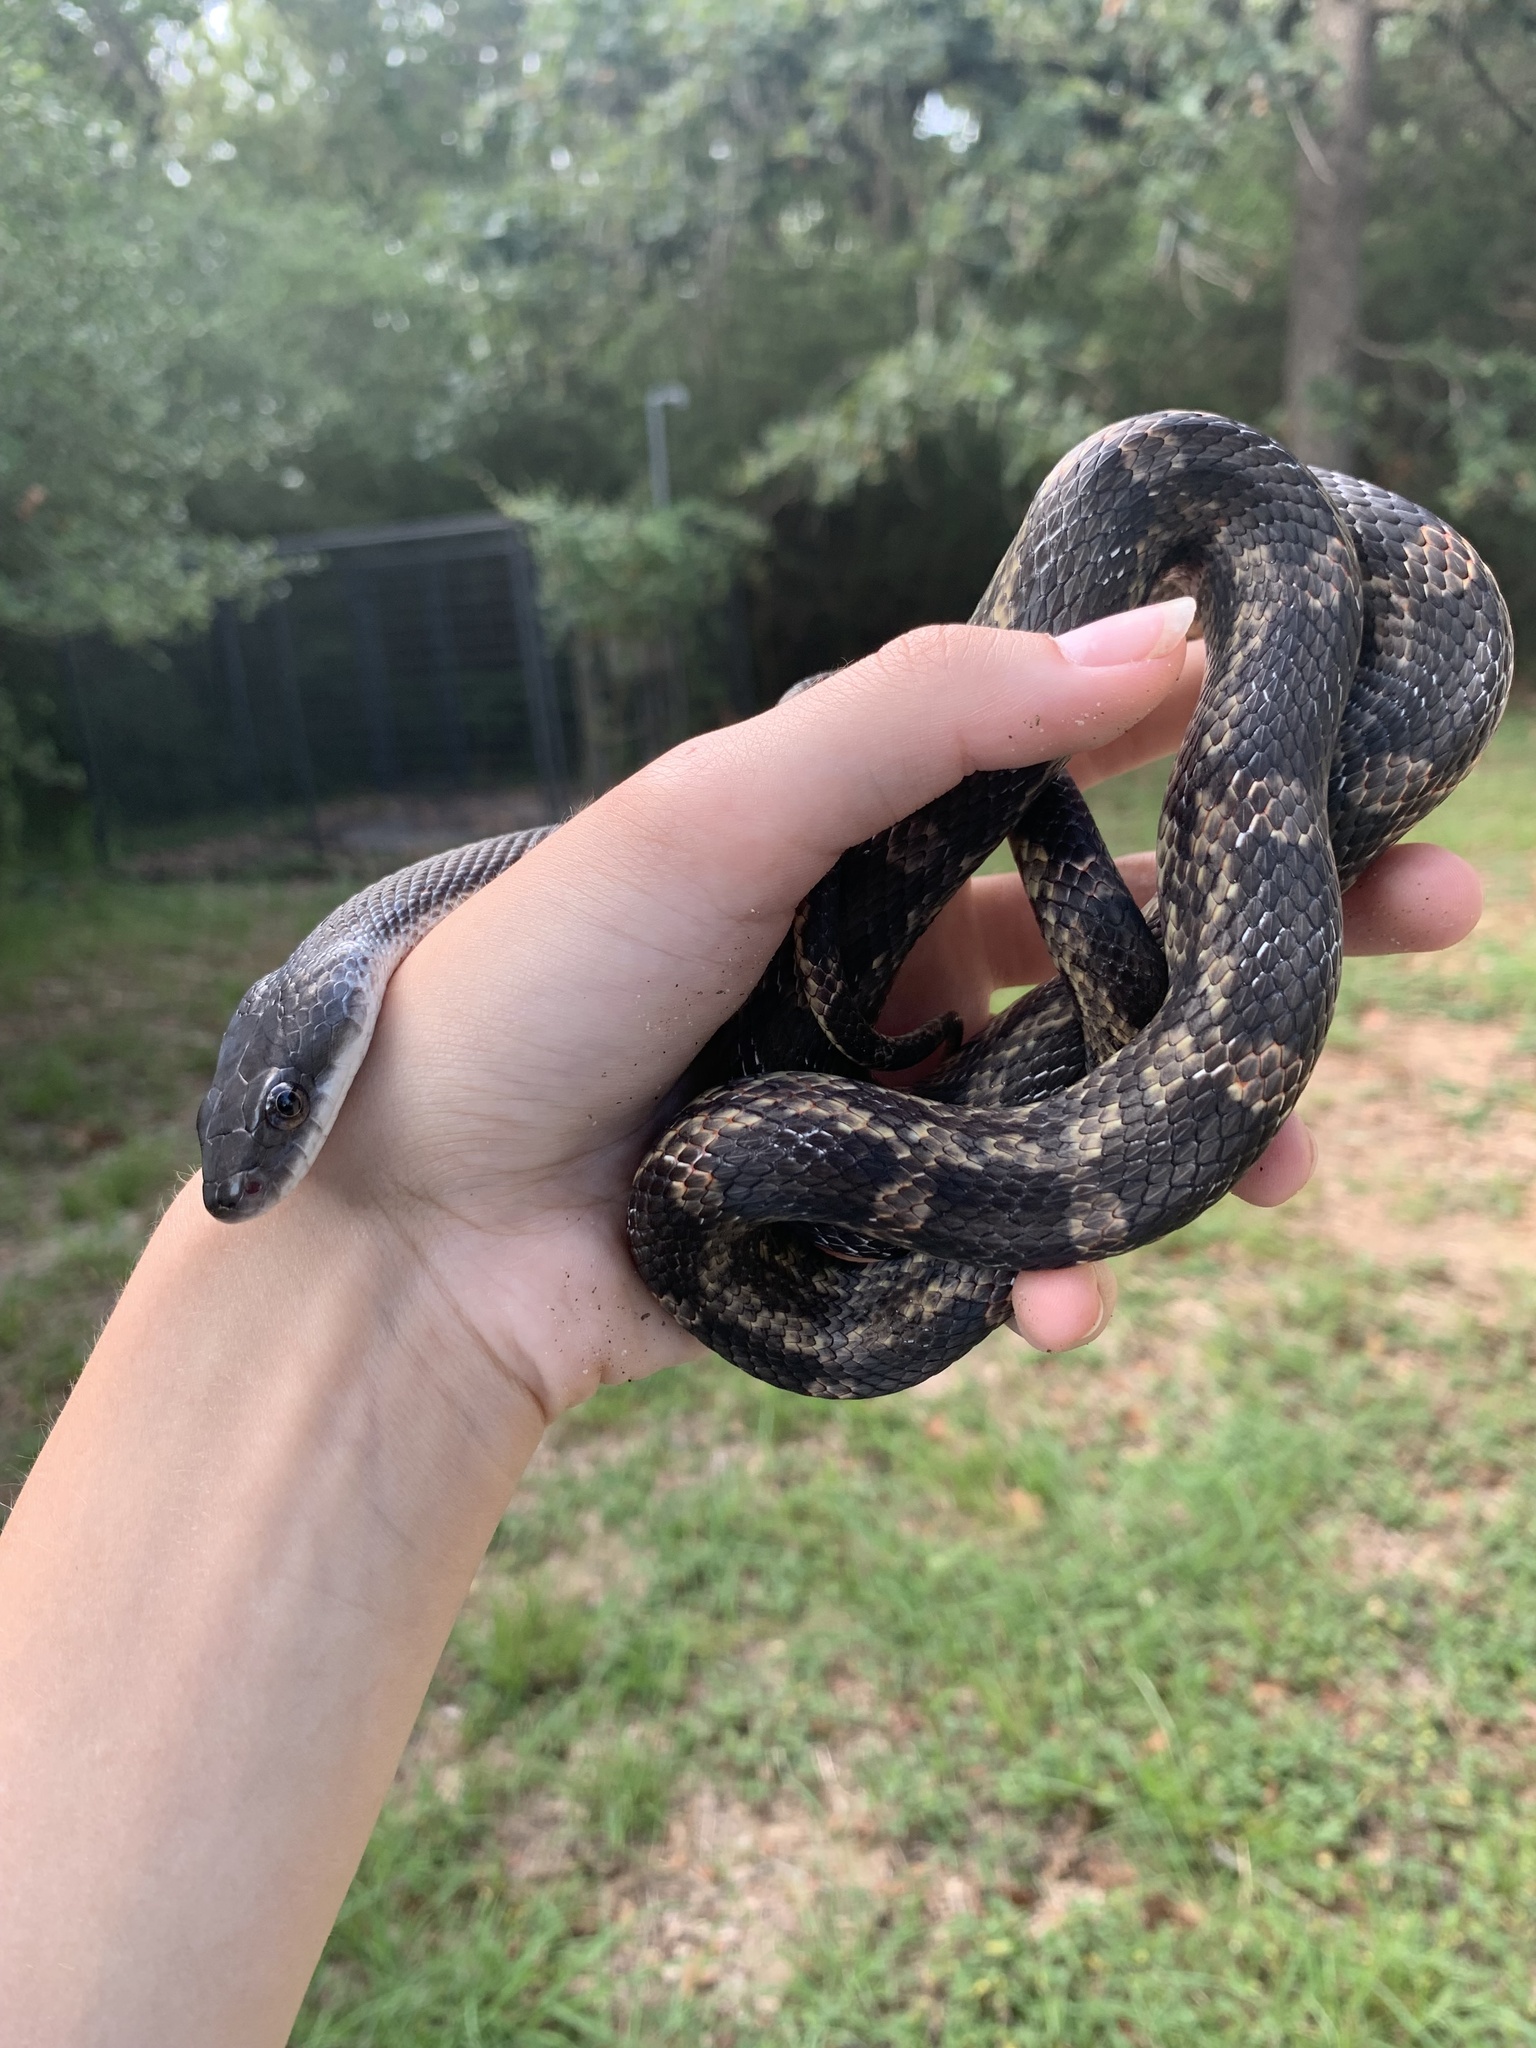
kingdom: Animalia
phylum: Chordata
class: Squamata
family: Colubridae
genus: Pantherophis
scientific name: Pantherophis obsoletus
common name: Black rat snake
